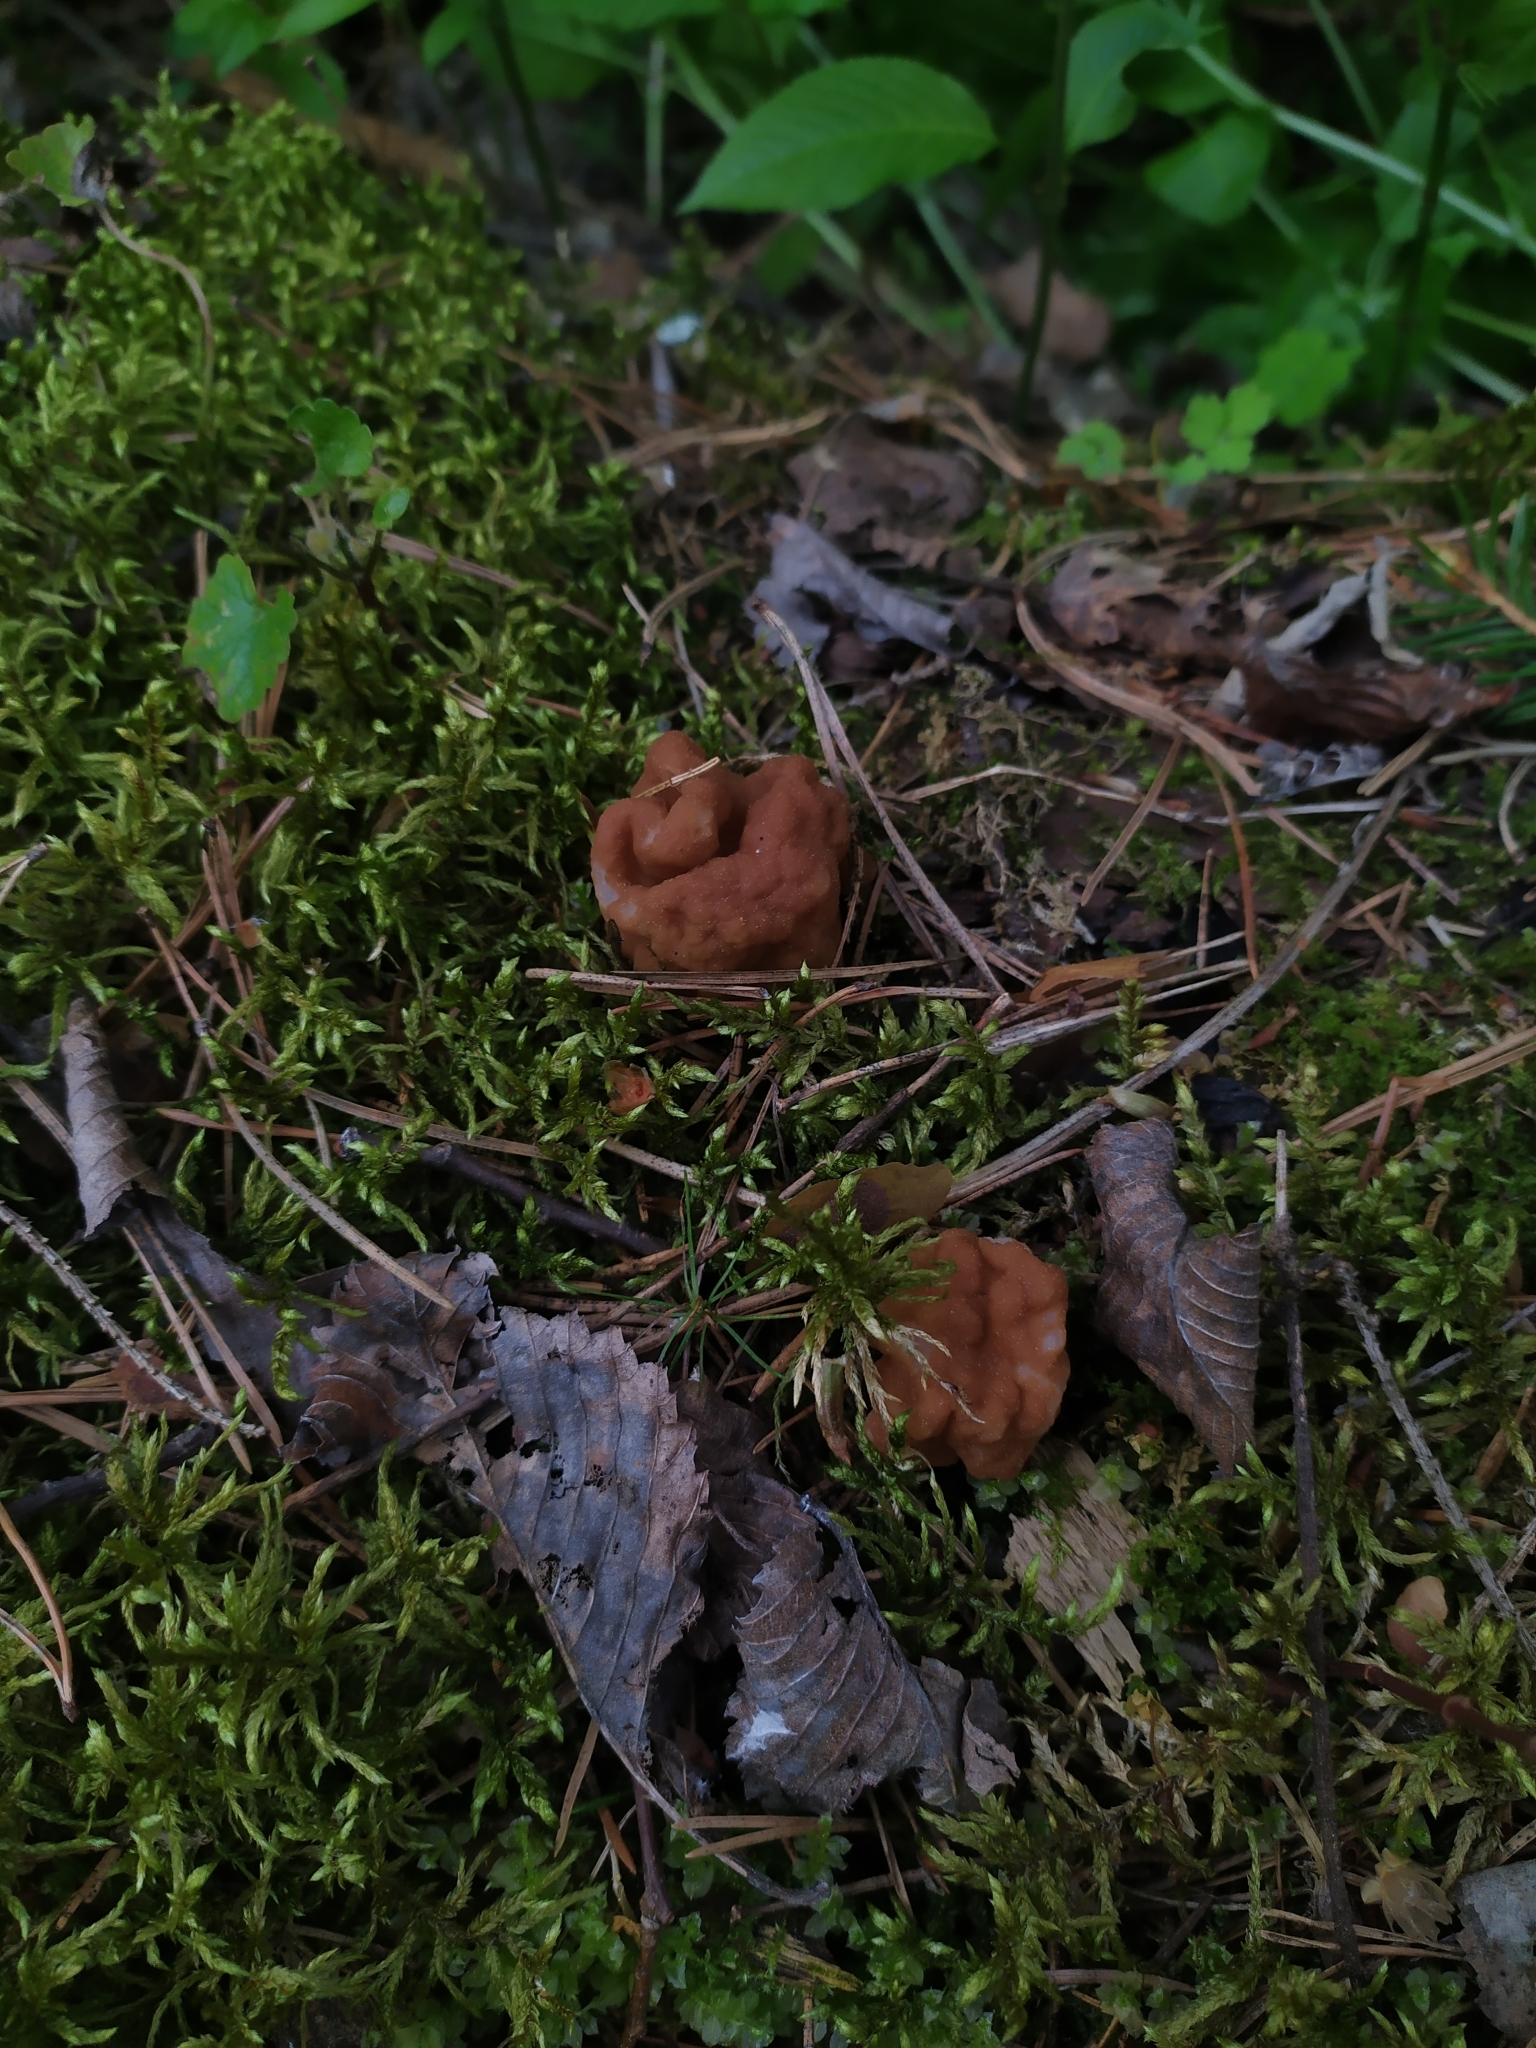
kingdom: Fungi
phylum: Ascomycota
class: Pezizomycetes
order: Pezizales
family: Discinaceae
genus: Gyromitra
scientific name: Gyromitra gigas
